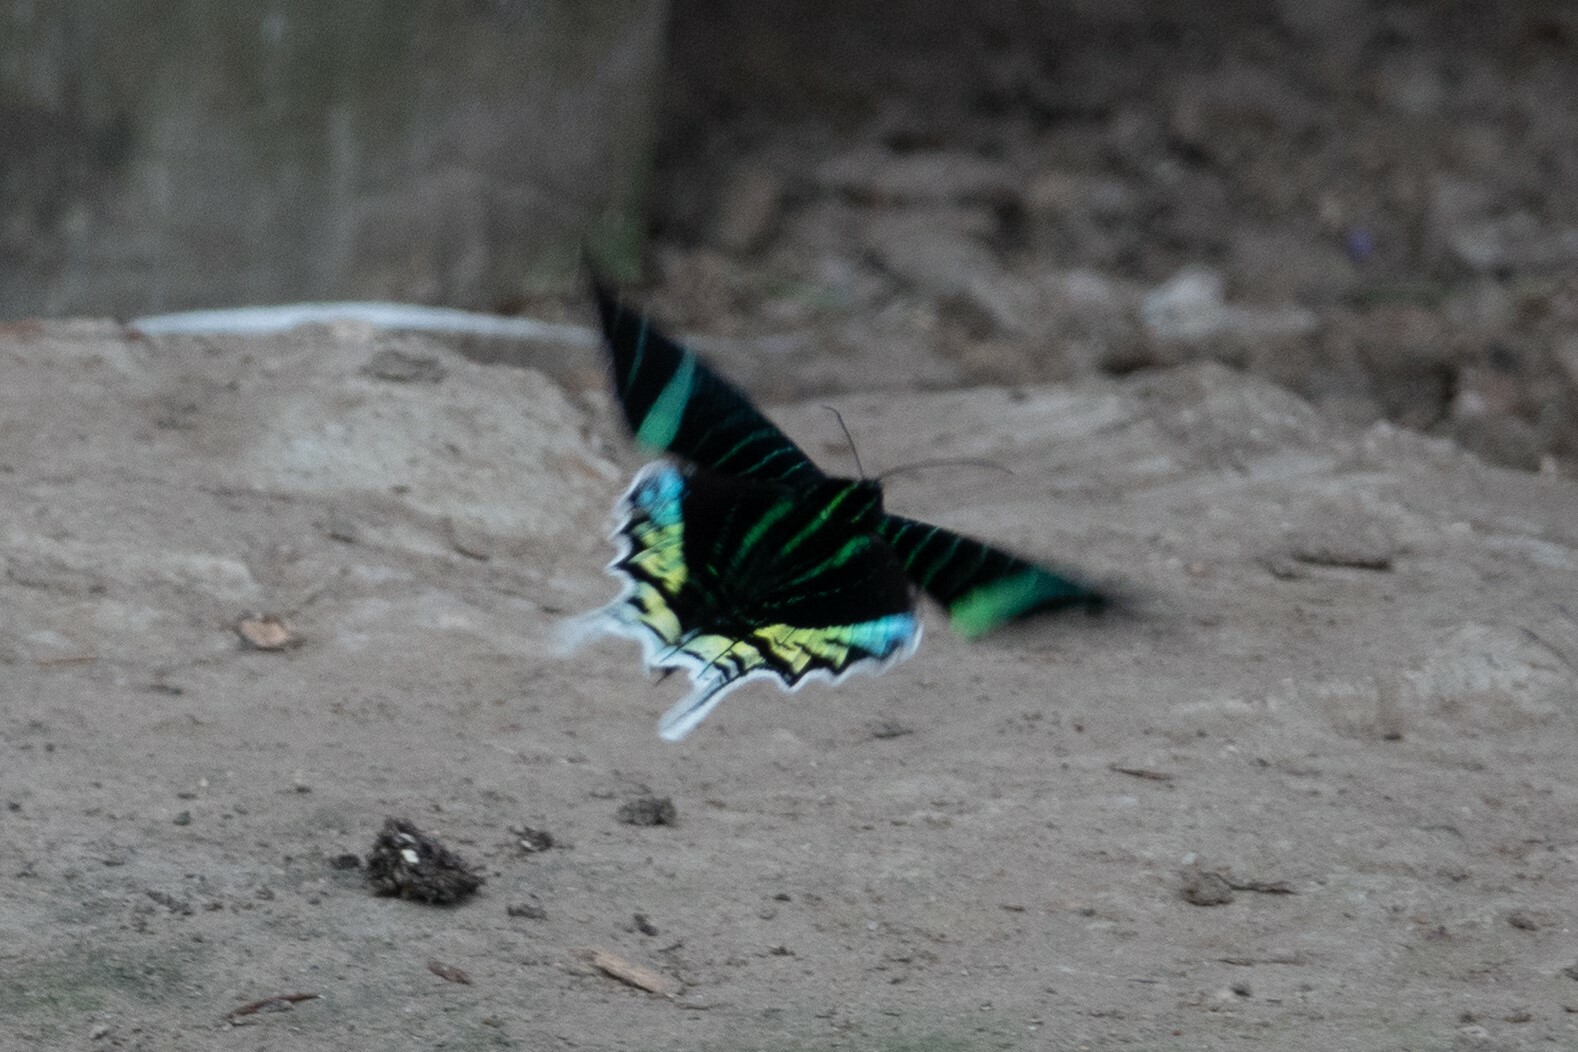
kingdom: Animalia
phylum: Arthropoda
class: Insecta
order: Lepidoptera
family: Uraniidae
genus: Urania
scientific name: Urania leilus
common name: Peacock moth
